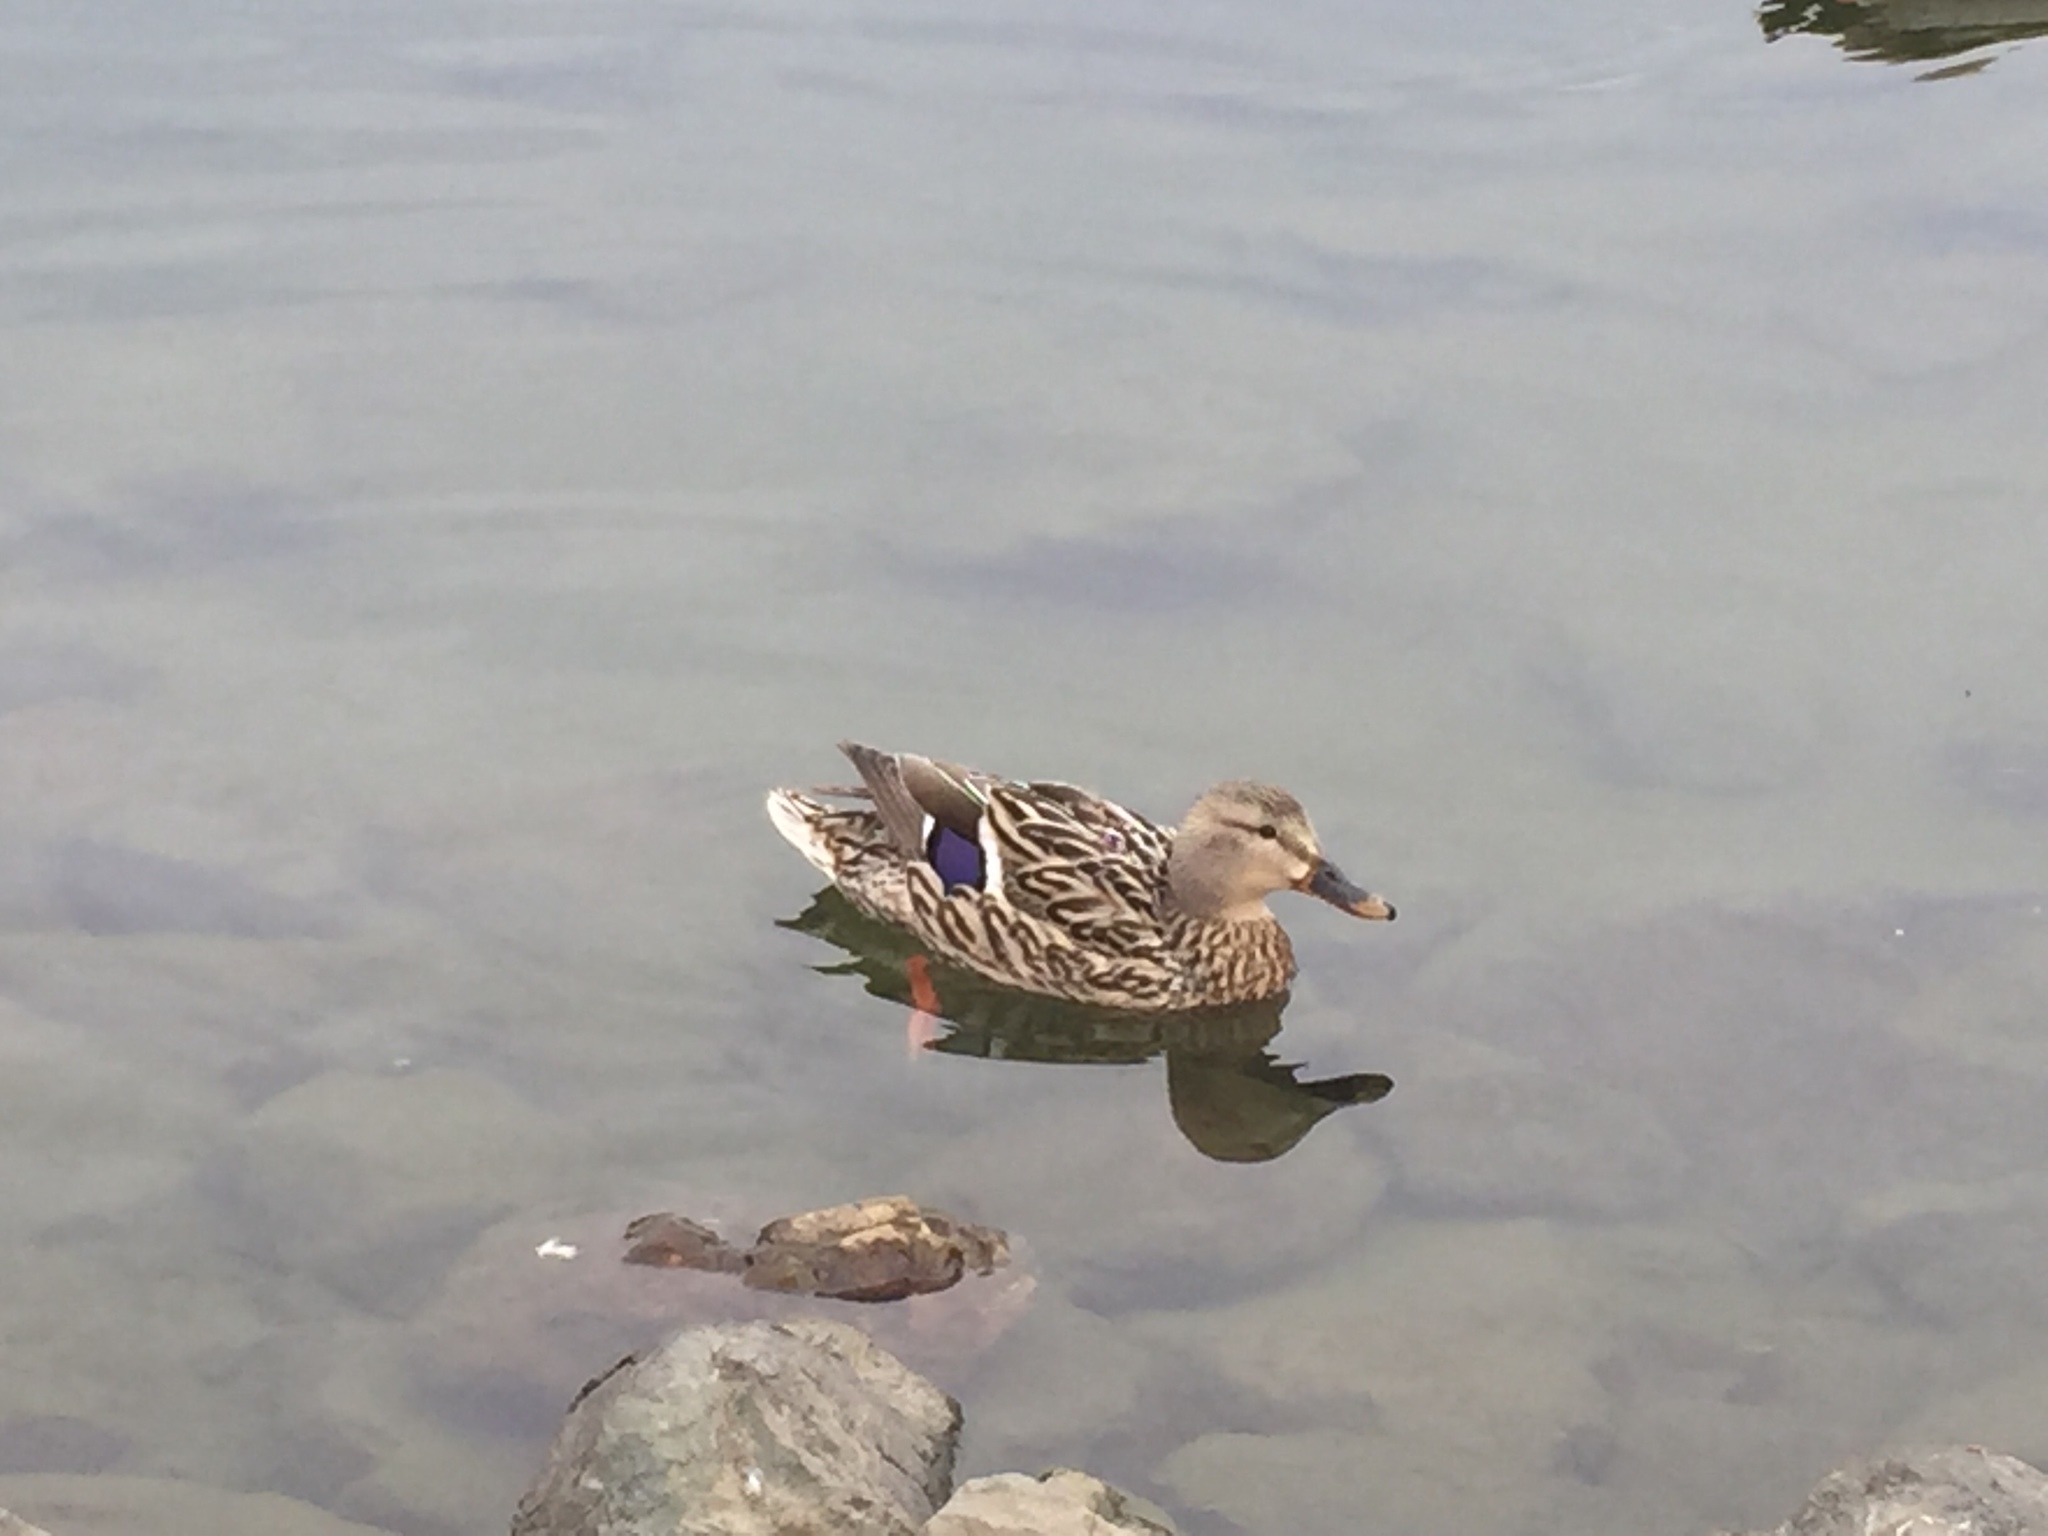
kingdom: Animalia
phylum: Chordata
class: Aves
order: Anseriformes
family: Anatidae
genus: Anas
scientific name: Anas platyrhynchos
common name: Mallard
